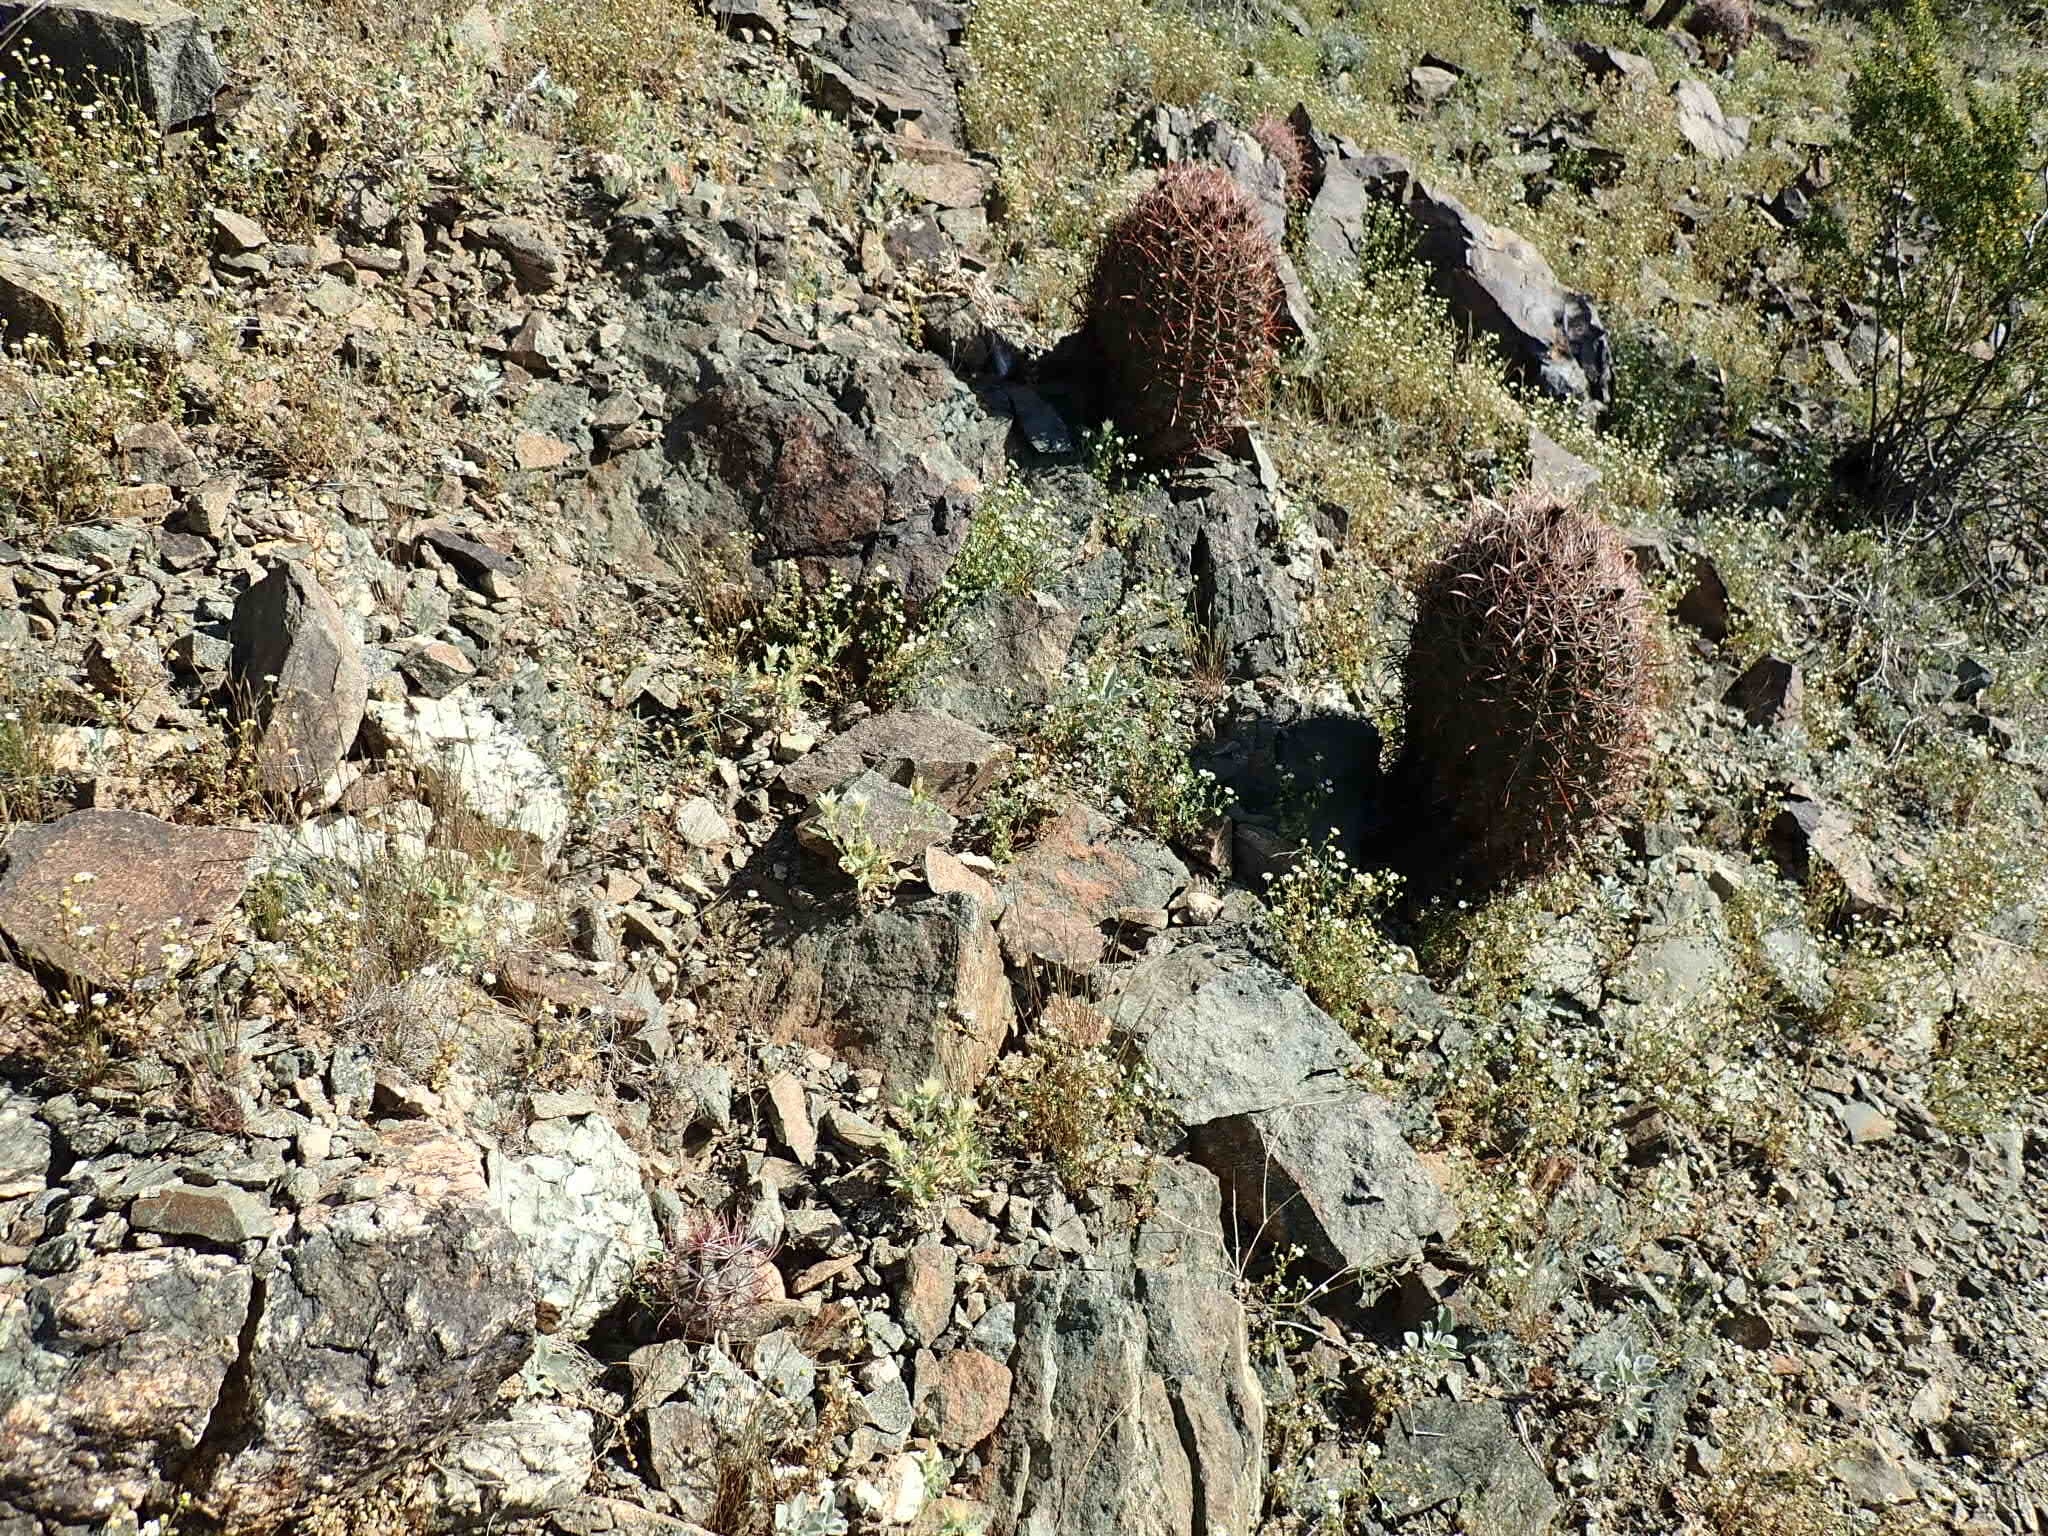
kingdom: Plantae
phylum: Tracheophyta
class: Magnoliopsida
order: Caryophyllales
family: Cactaceae
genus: Ferocactus
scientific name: Ferocactus cylindraceus
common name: California barrel cactus
